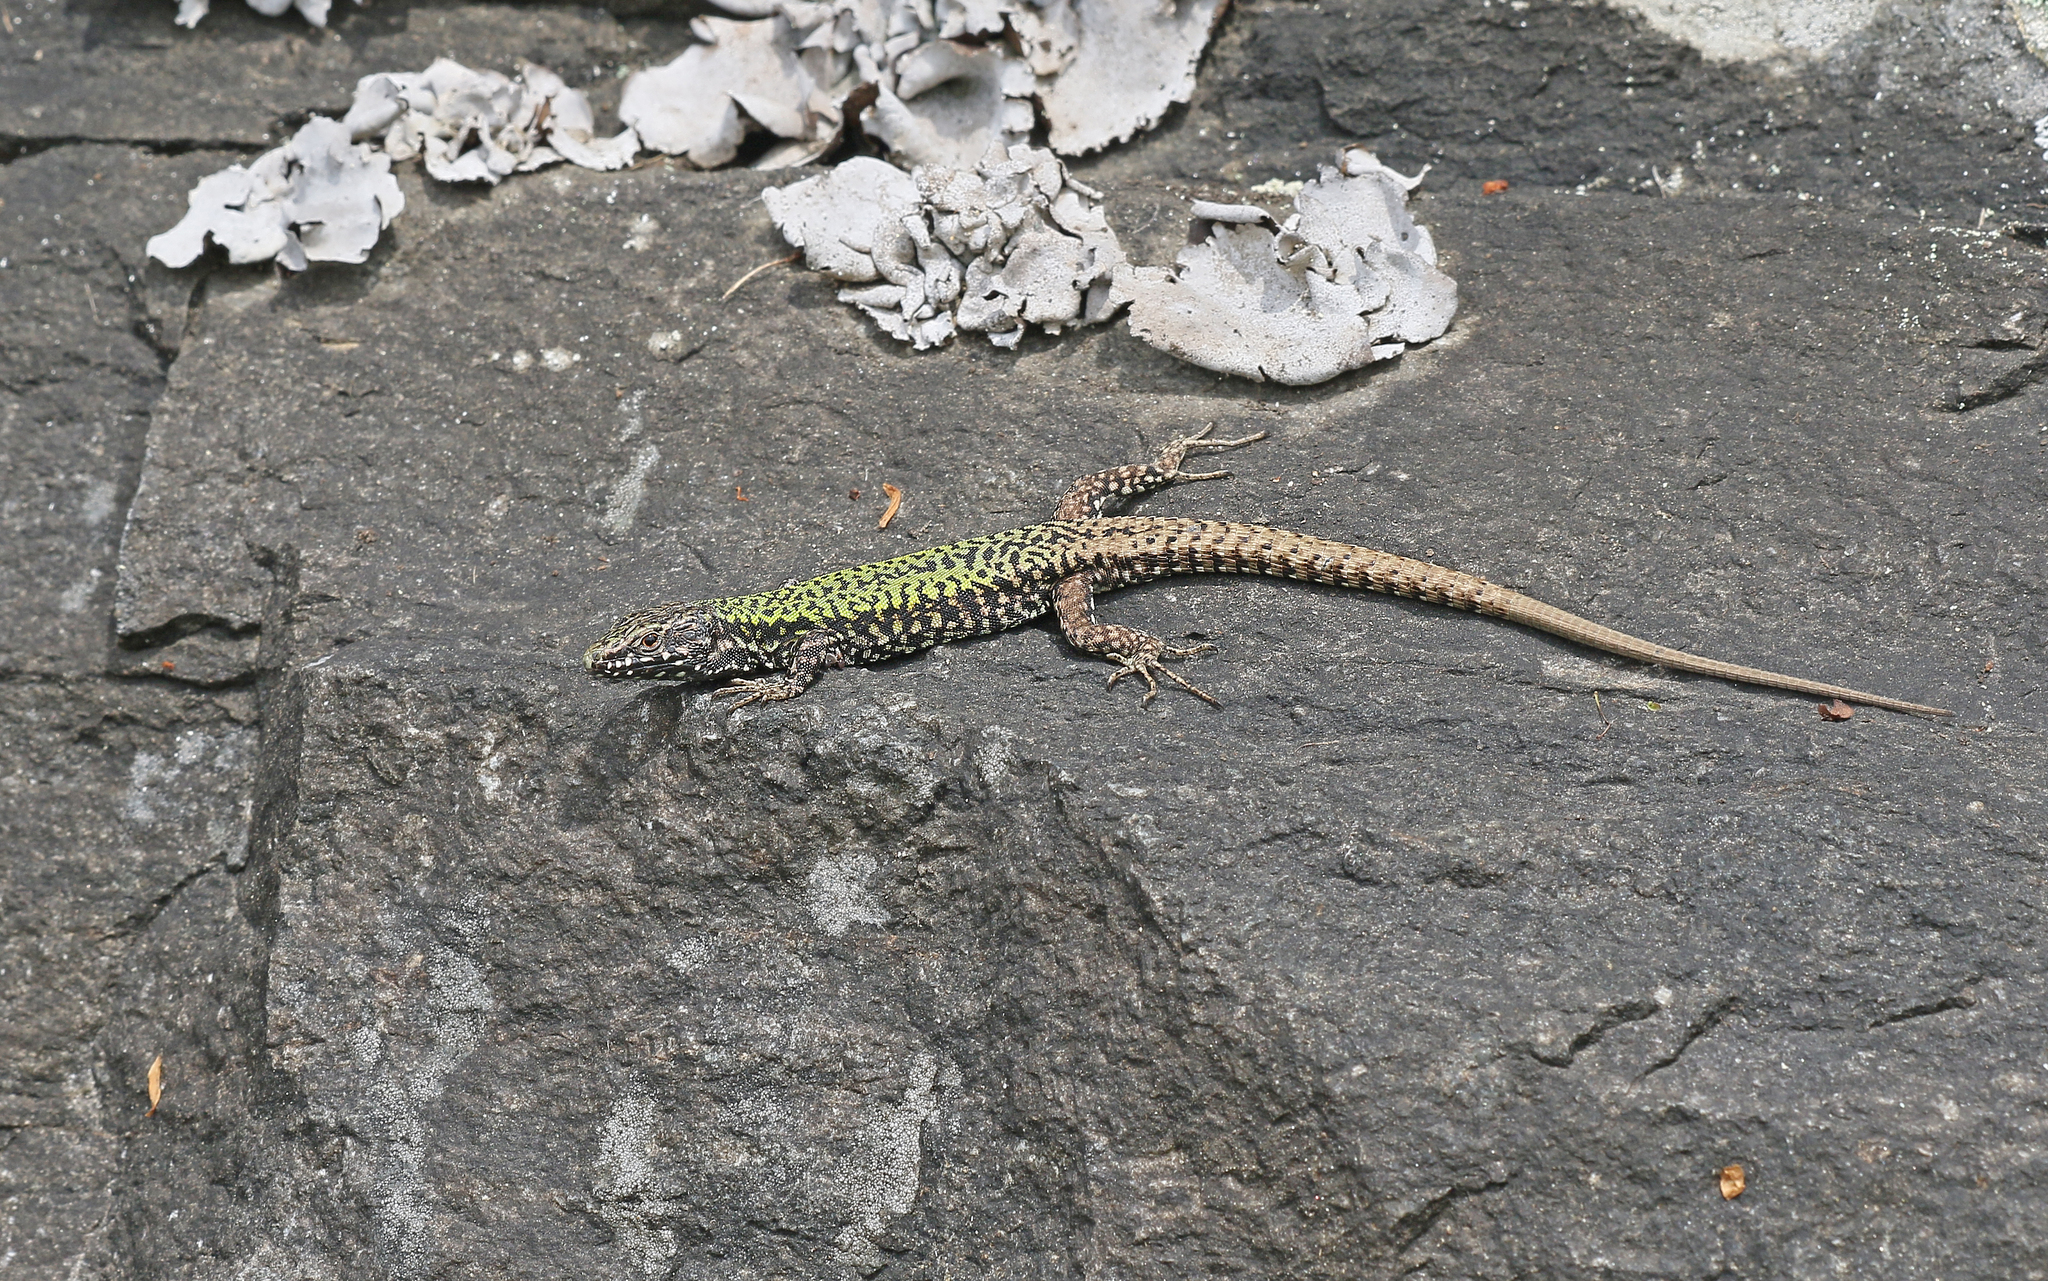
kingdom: Animalia
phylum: Chordata
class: Squamata
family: Lacertidae
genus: Podarcis
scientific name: Podarcis muralis
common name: Common wall lizard
